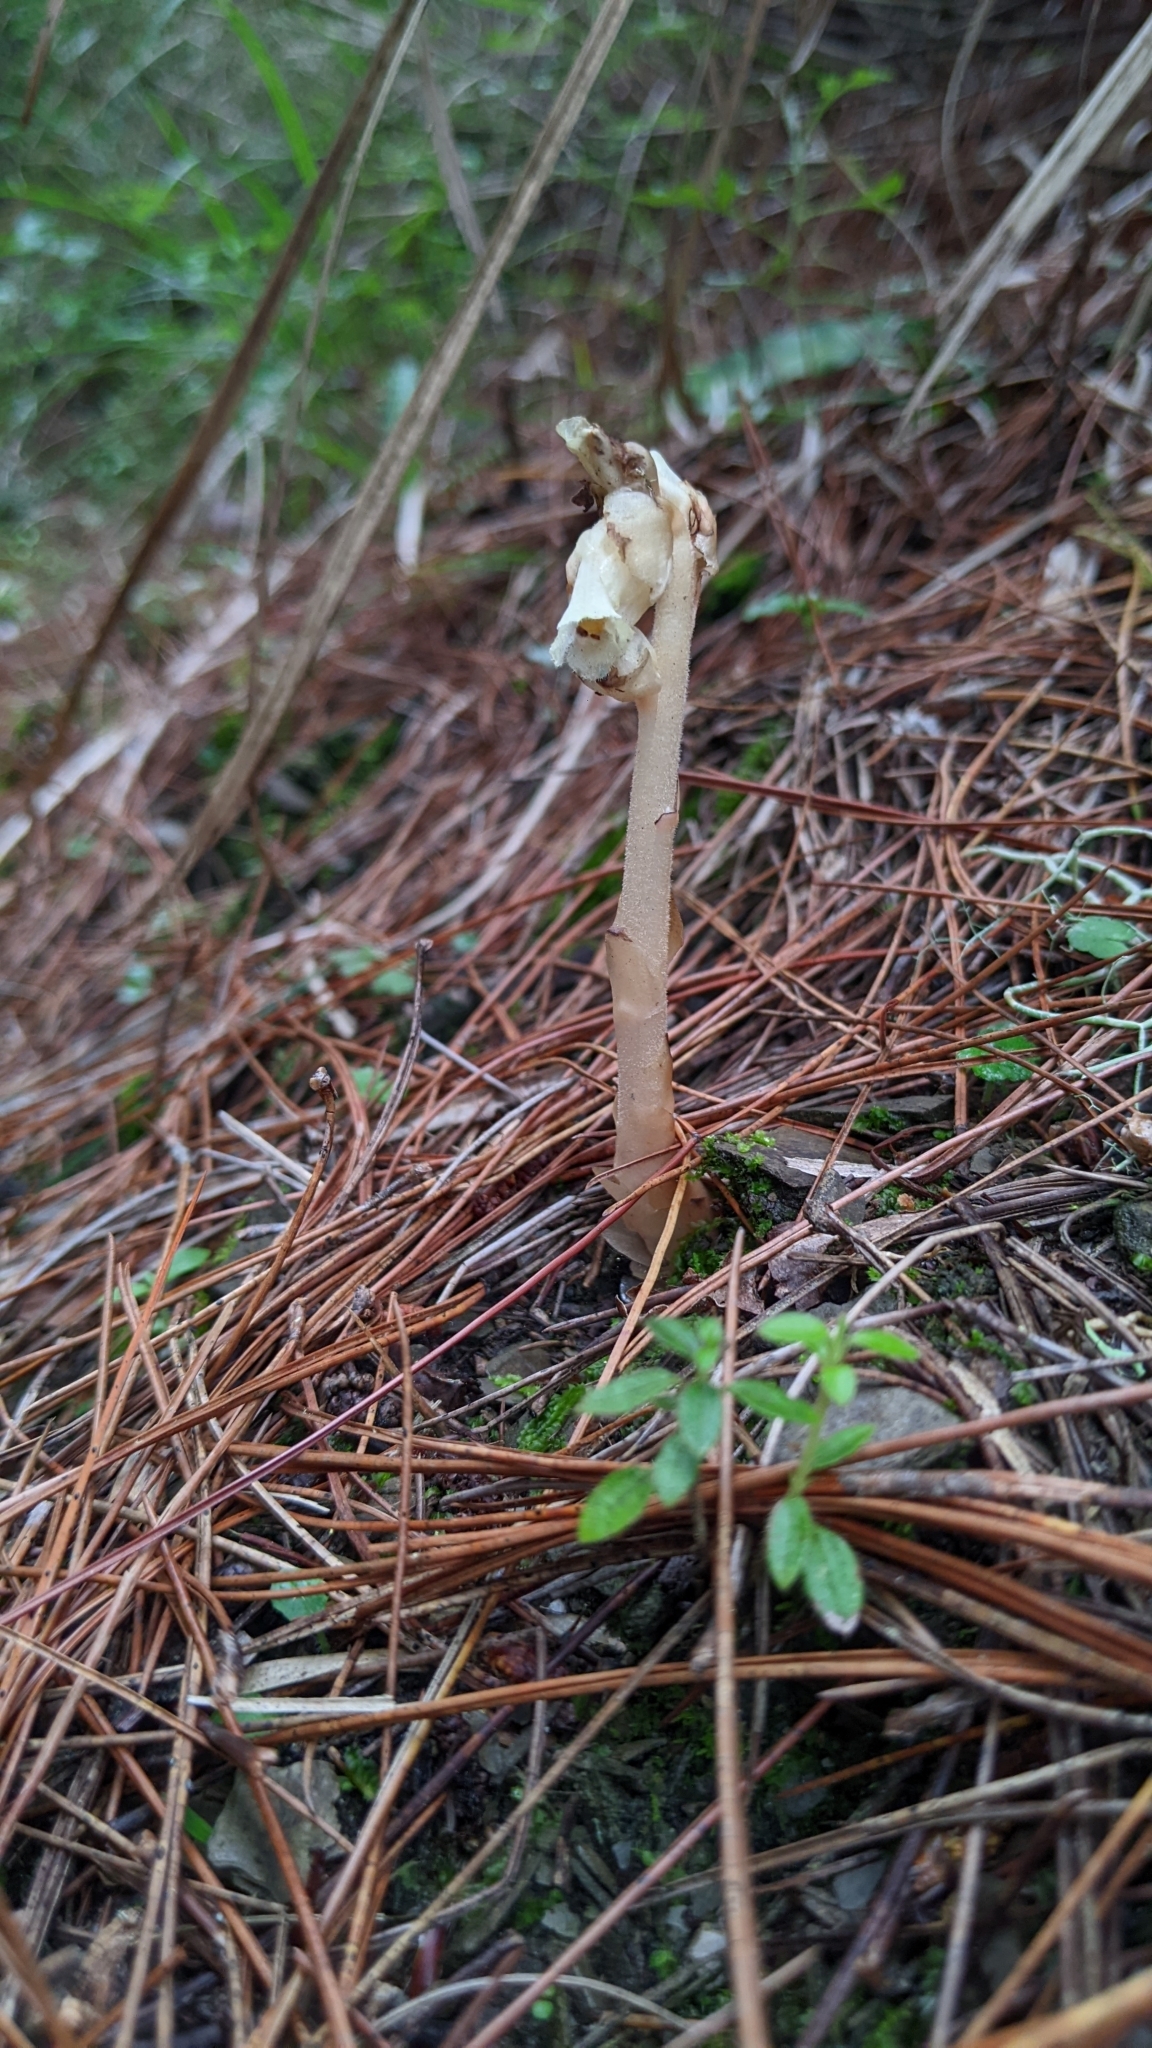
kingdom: Plantae
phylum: Tracheophyta
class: Magnoliopsida
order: Ericales
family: Ericaceae
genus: Hypopitys
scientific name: Hypopitys monotropa
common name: Yellow bird's-nest
